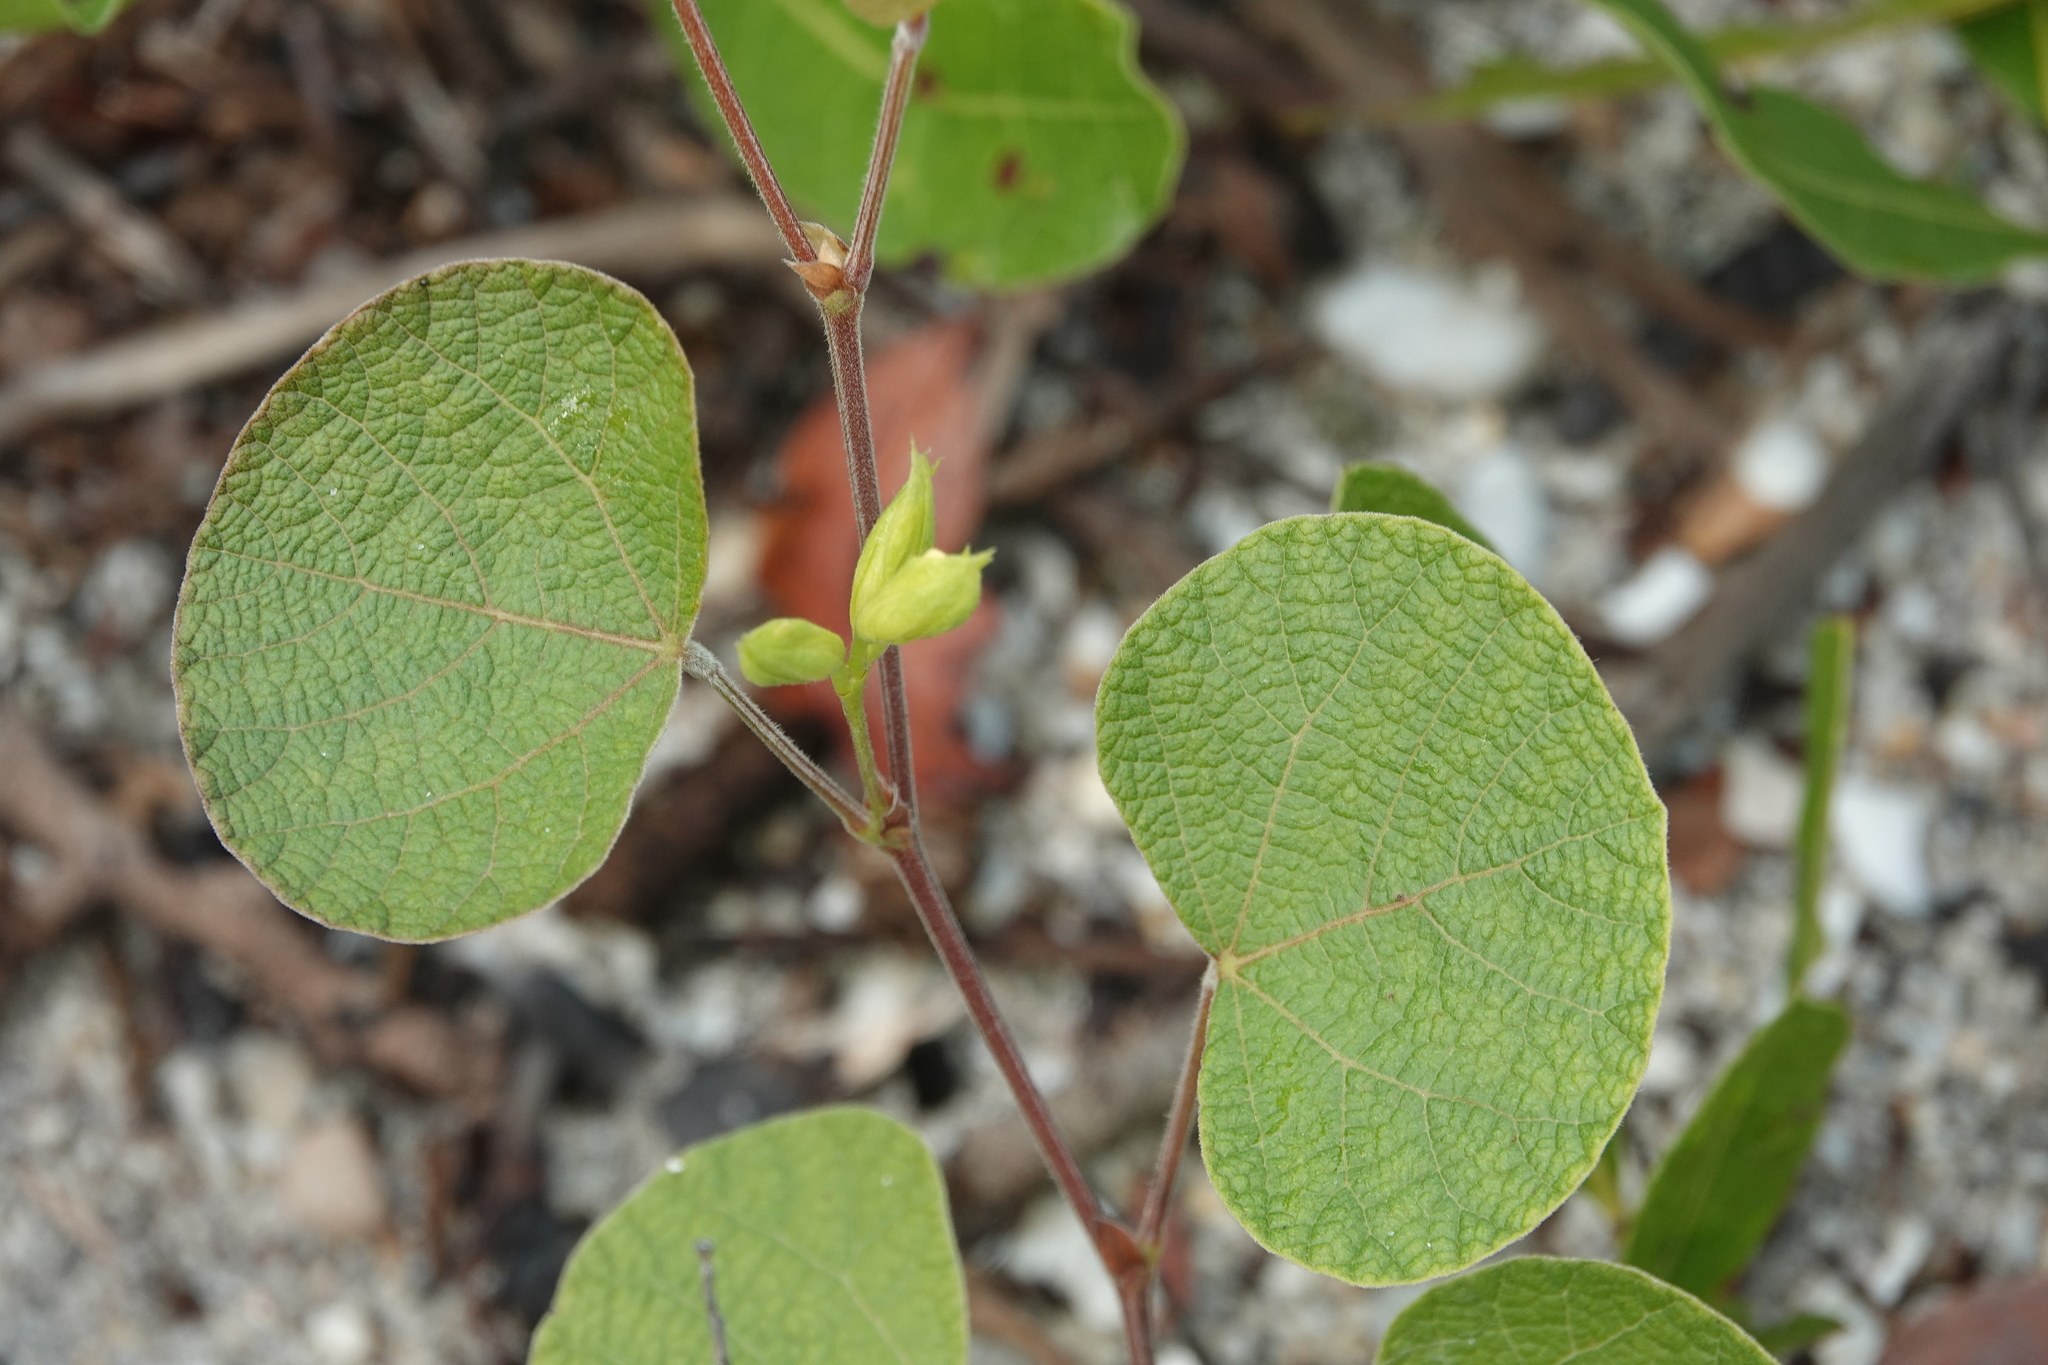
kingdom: Plantae
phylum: Tracheophyta
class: Magnoliopsida
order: Fabales
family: Fabaceae
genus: Rhynchosia
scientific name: Rhynchosia michauxii
